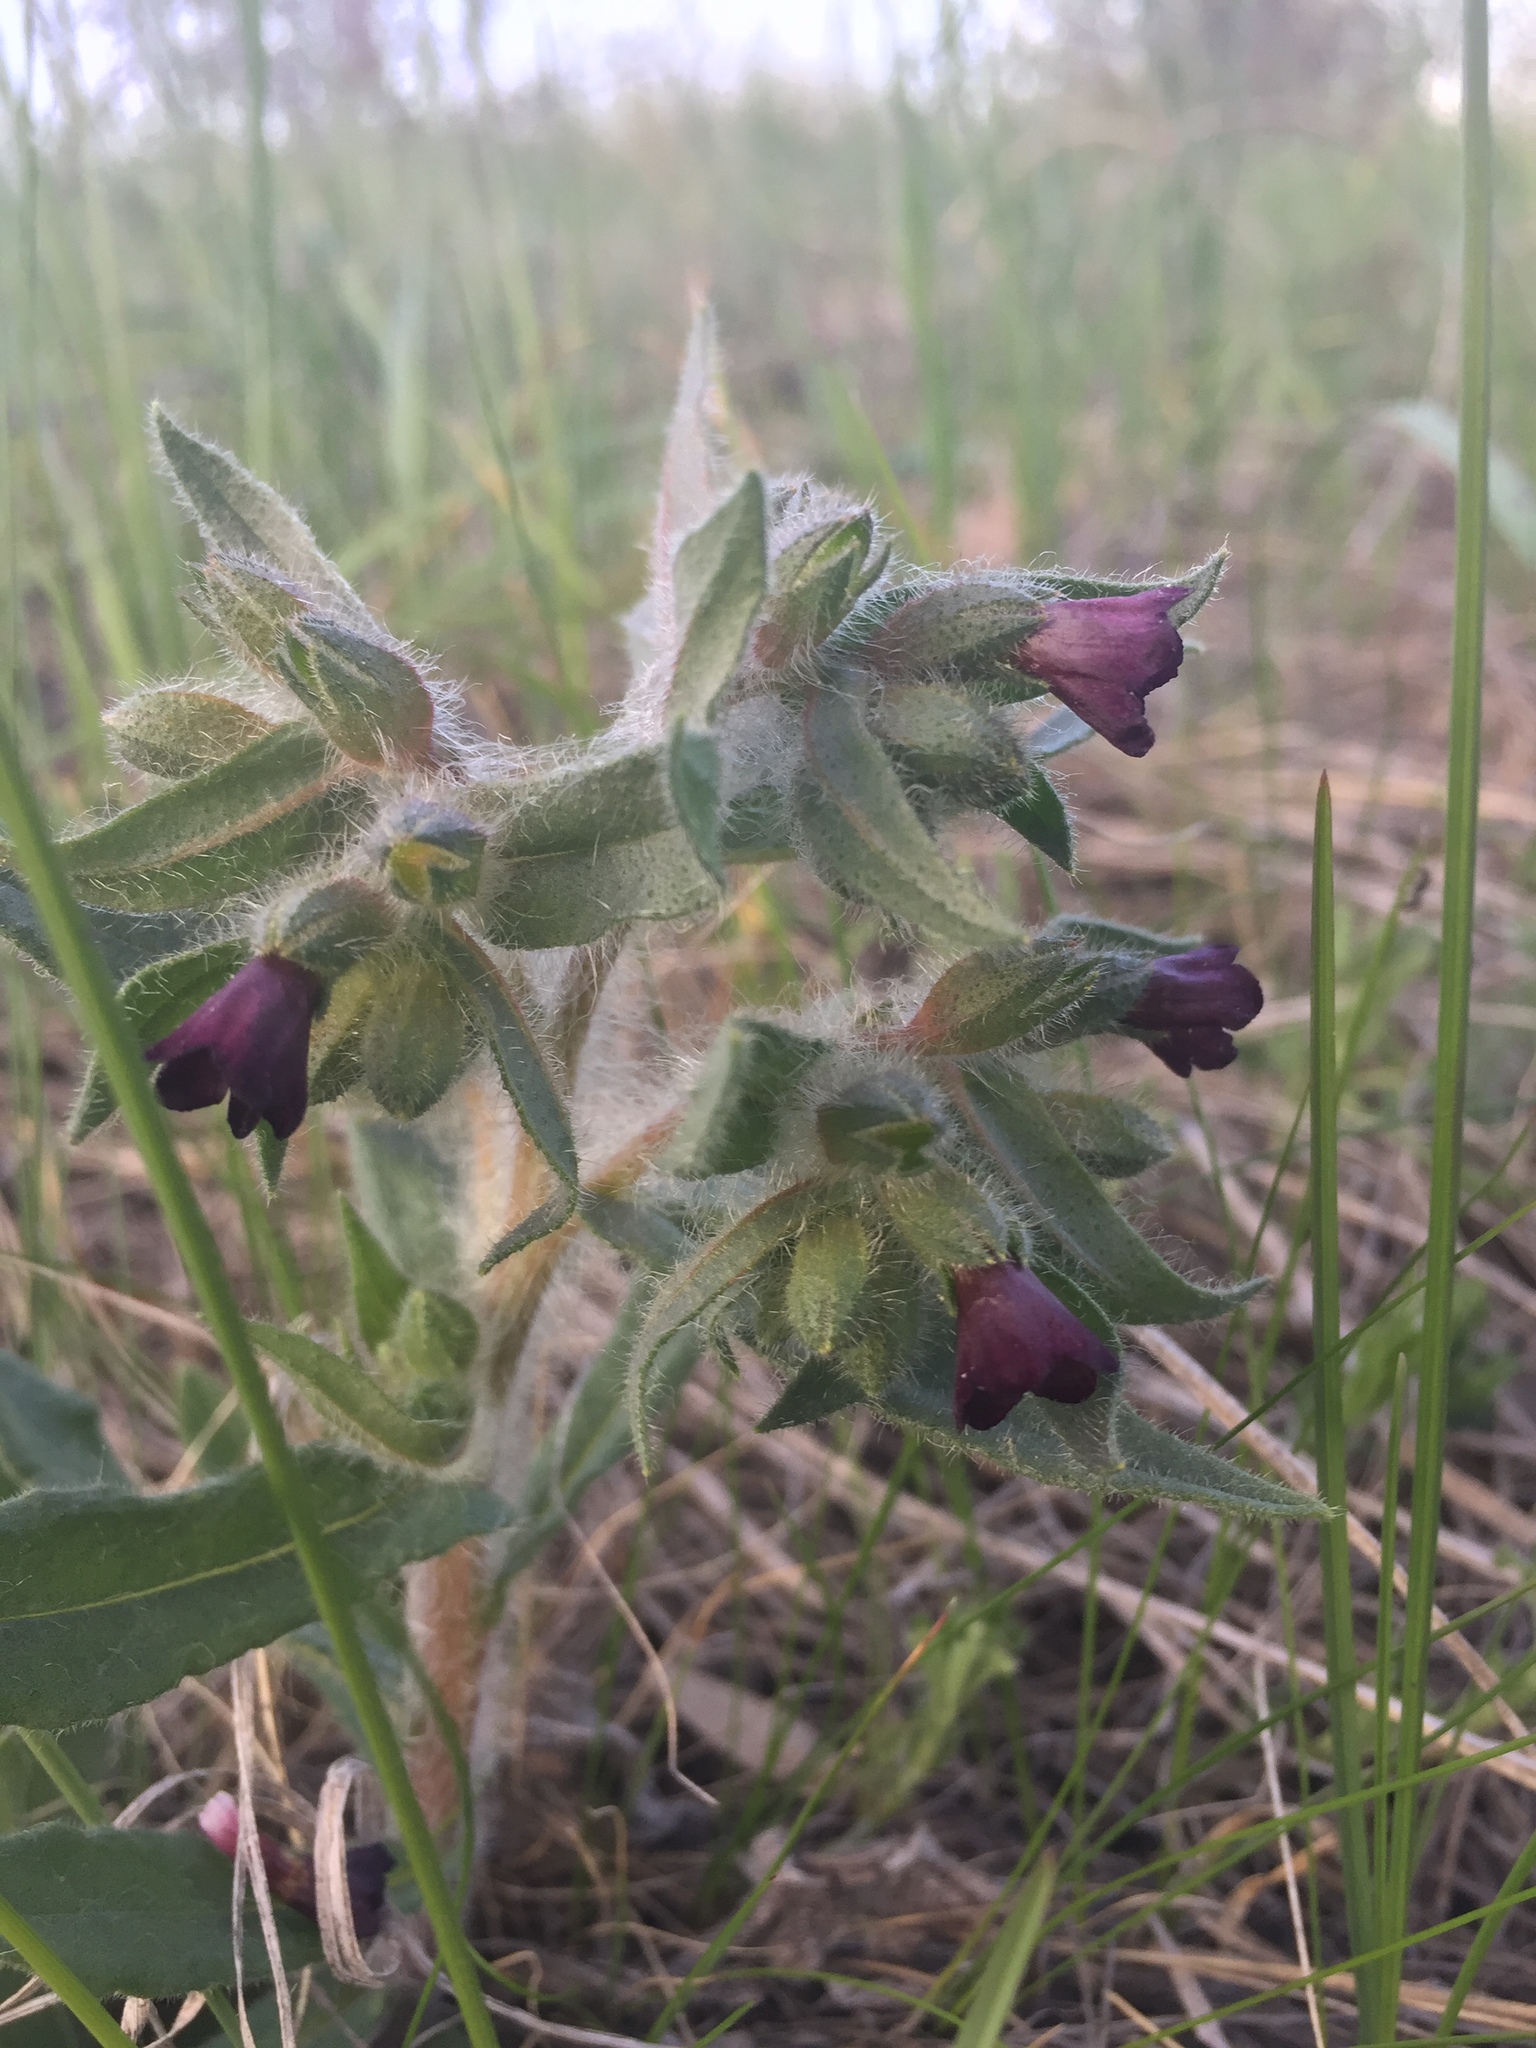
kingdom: Plantae
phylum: Tracheophyta
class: Magnoliopsida
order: Boraginales
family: Boraginaceae
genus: Nonea
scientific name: Nonea pulla
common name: Brown nonea
